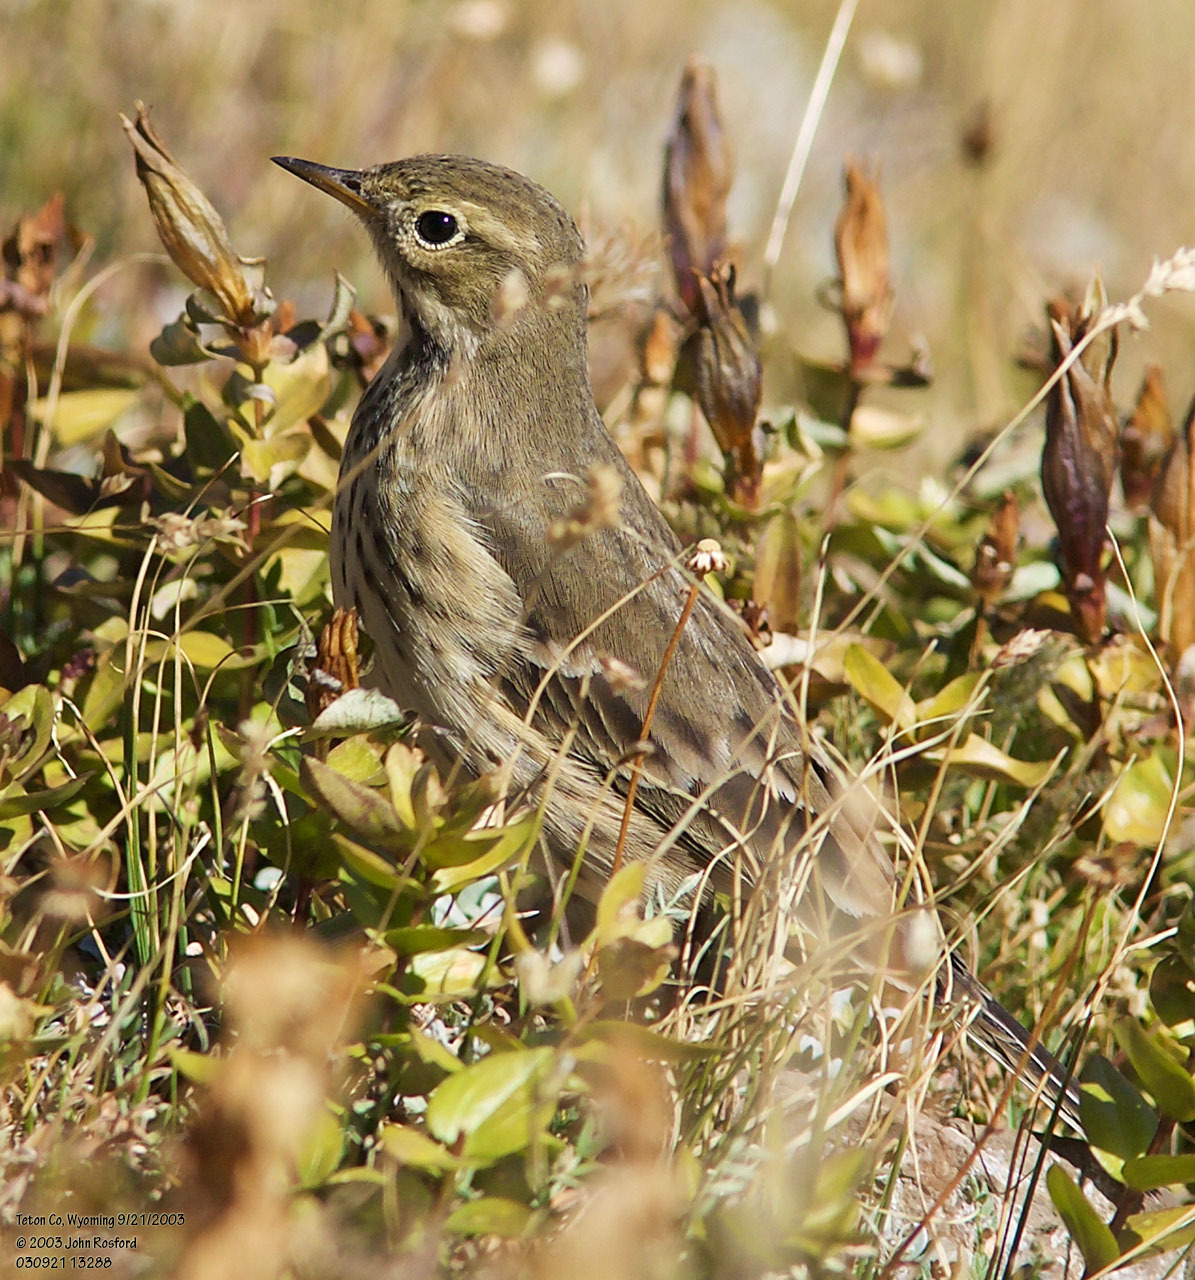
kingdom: Animalia
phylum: Chordata
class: Aves
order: Passeriformes
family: Motacillidae
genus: Anthus
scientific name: Anthus rubescens
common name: Buff-bellied pipit
